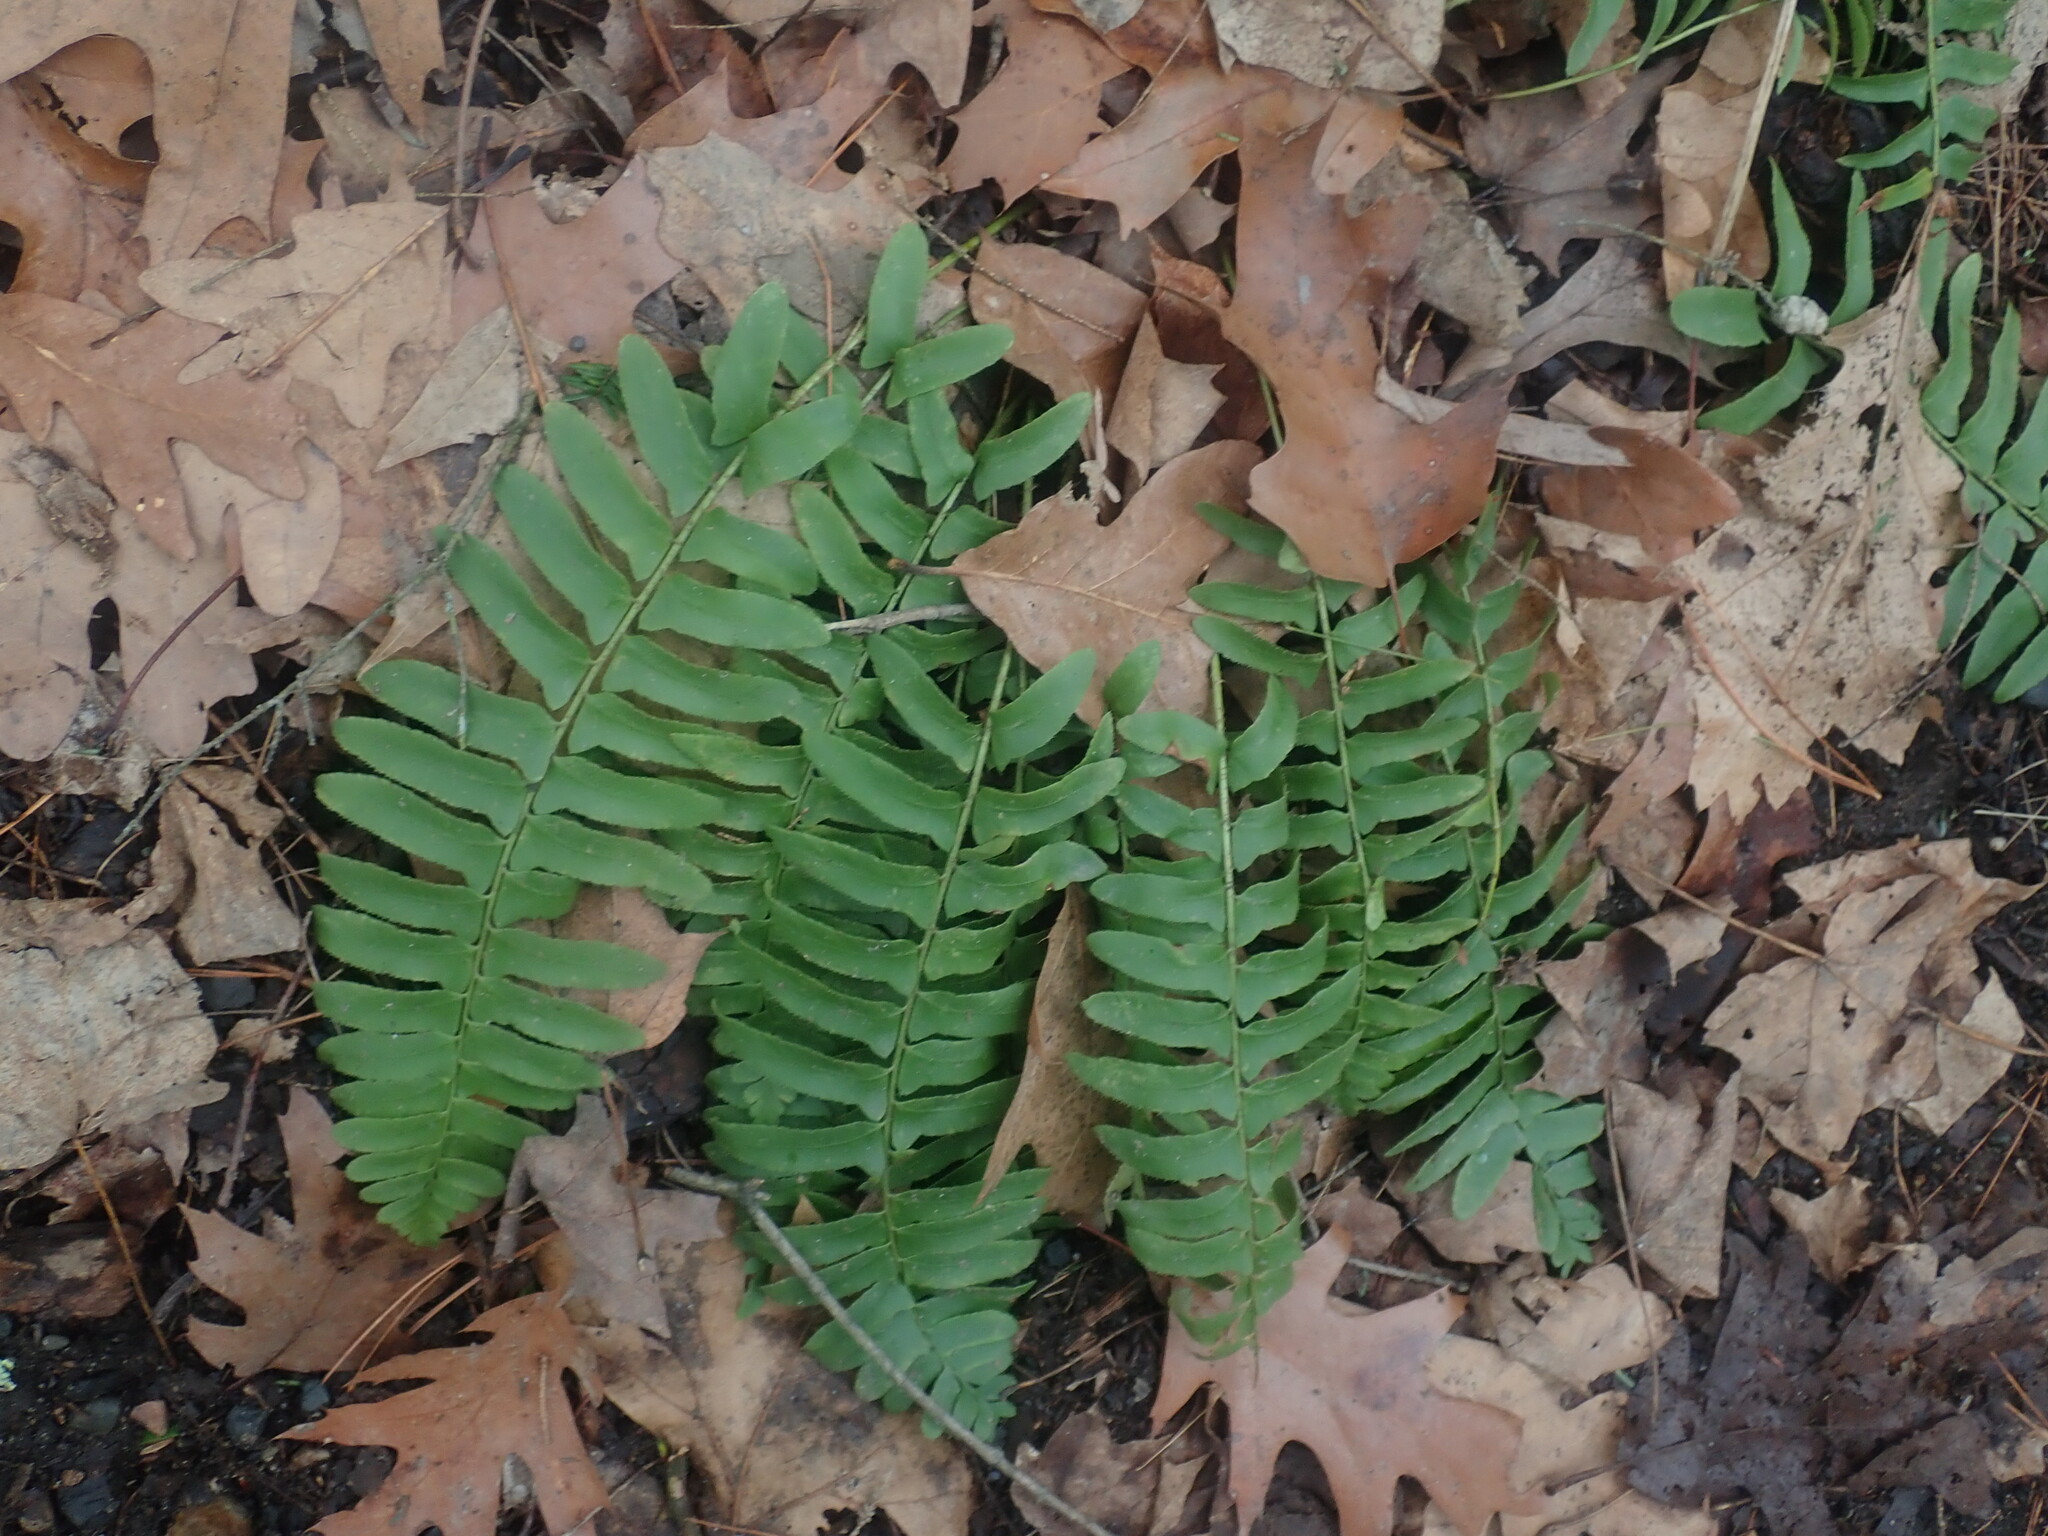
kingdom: Plantae
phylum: Tracheophyta
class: Polypodiopsida
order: Polypodiales
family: Dryopteridaceae
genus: Polystichum
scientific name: Polystichum acrostichoides
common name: Christmas fern
